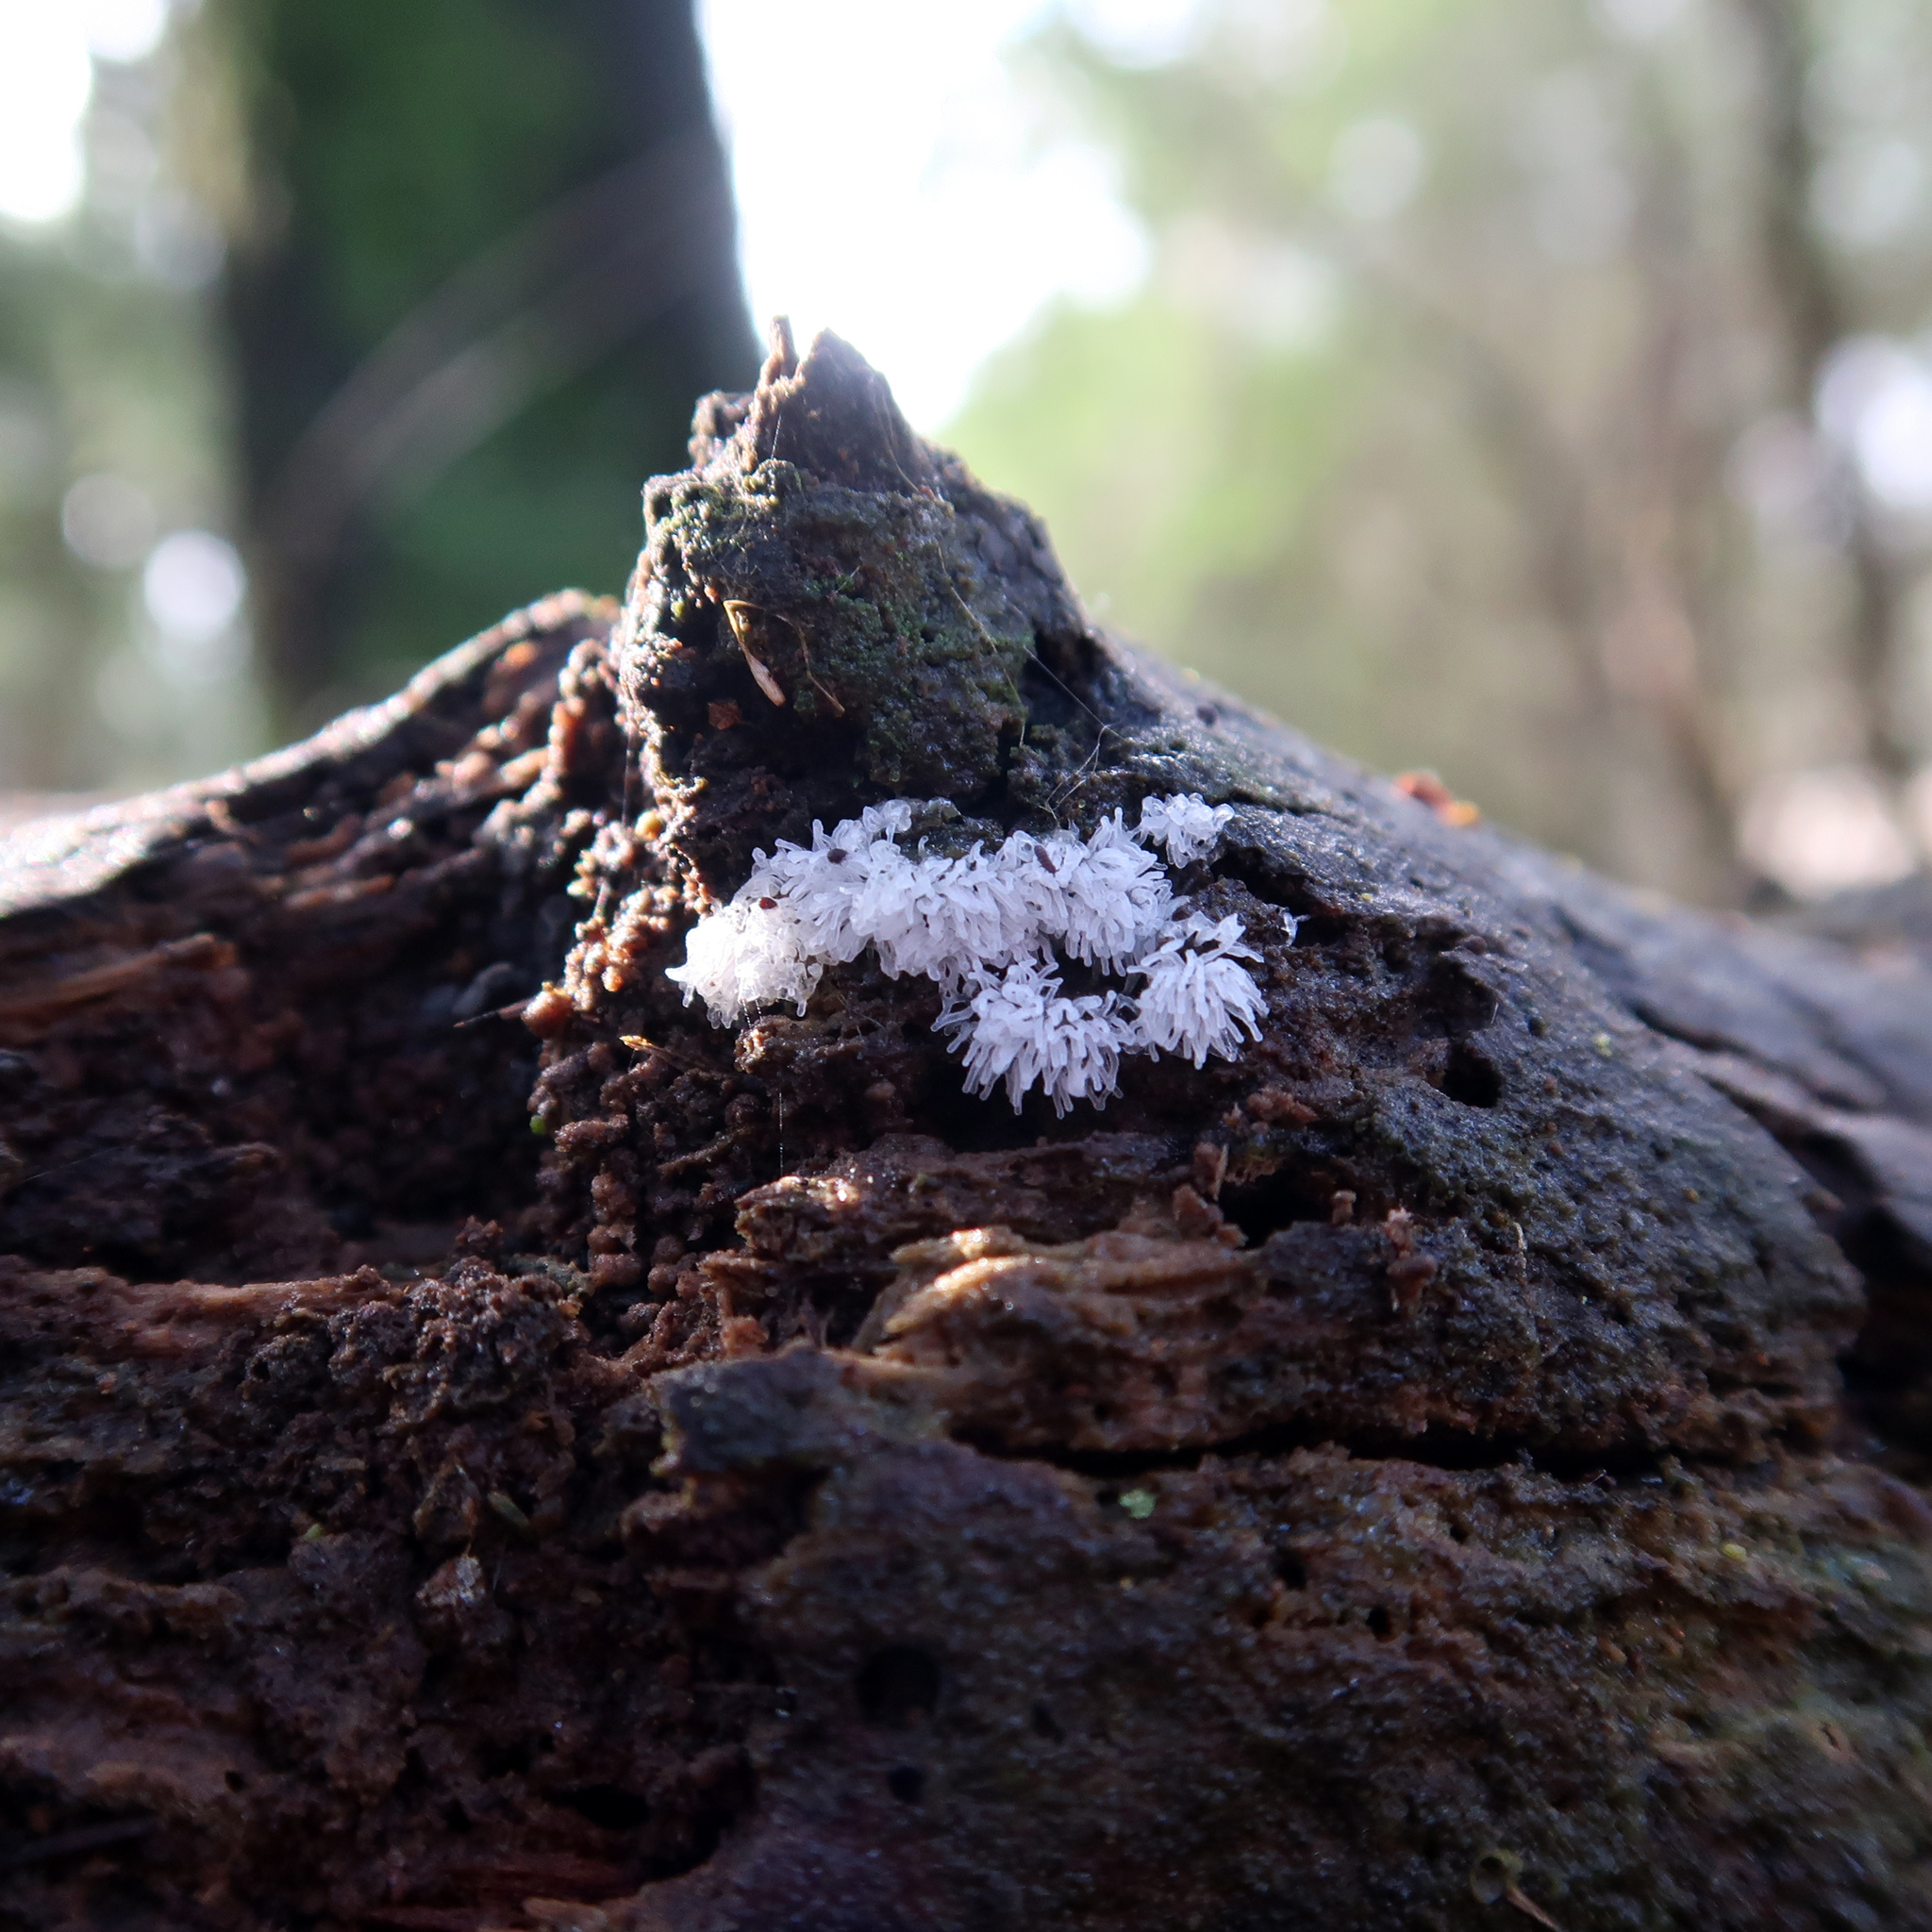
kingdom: Protozoa
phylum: Mycetozoa
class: Protosteliomycetes
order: Ceratiomyxales
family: Ceratiomyxaceae
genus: Ceratiomyxa
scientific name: Ceratiomyxa fruticulosa
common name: Honeycomb coral slime mold
